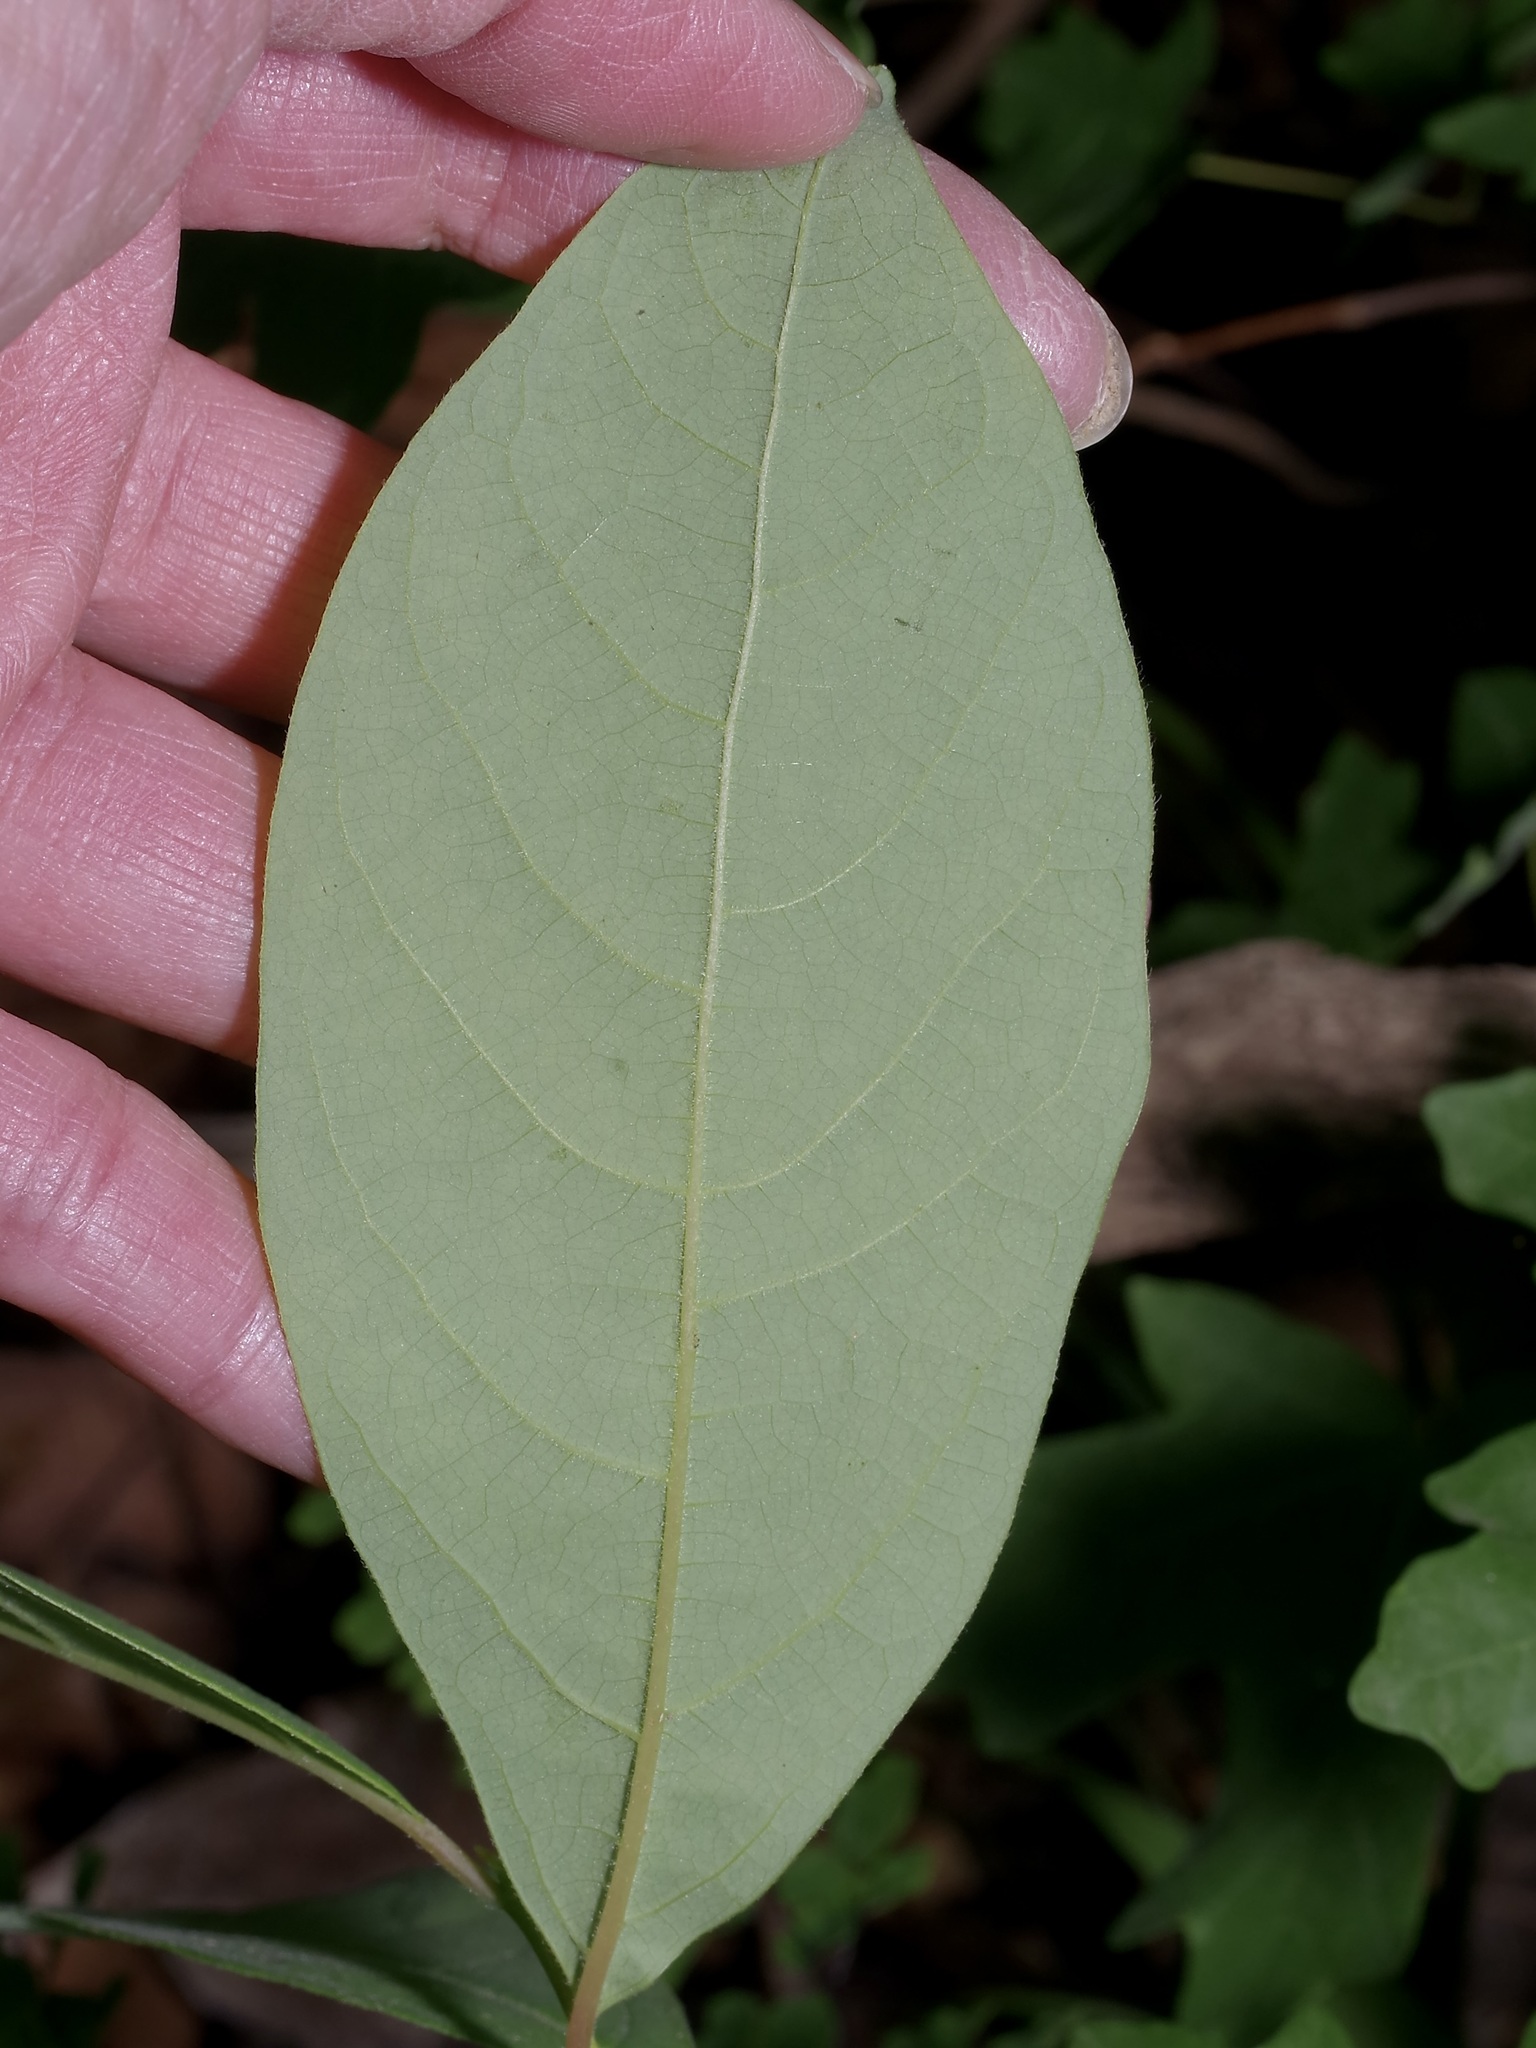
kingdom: Plantae
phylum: Tracheophyta
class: Magnoliopsida
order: Laurales
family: Lauraceae
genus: Lindera
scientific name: Lindera benzoin
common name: Spicebush
